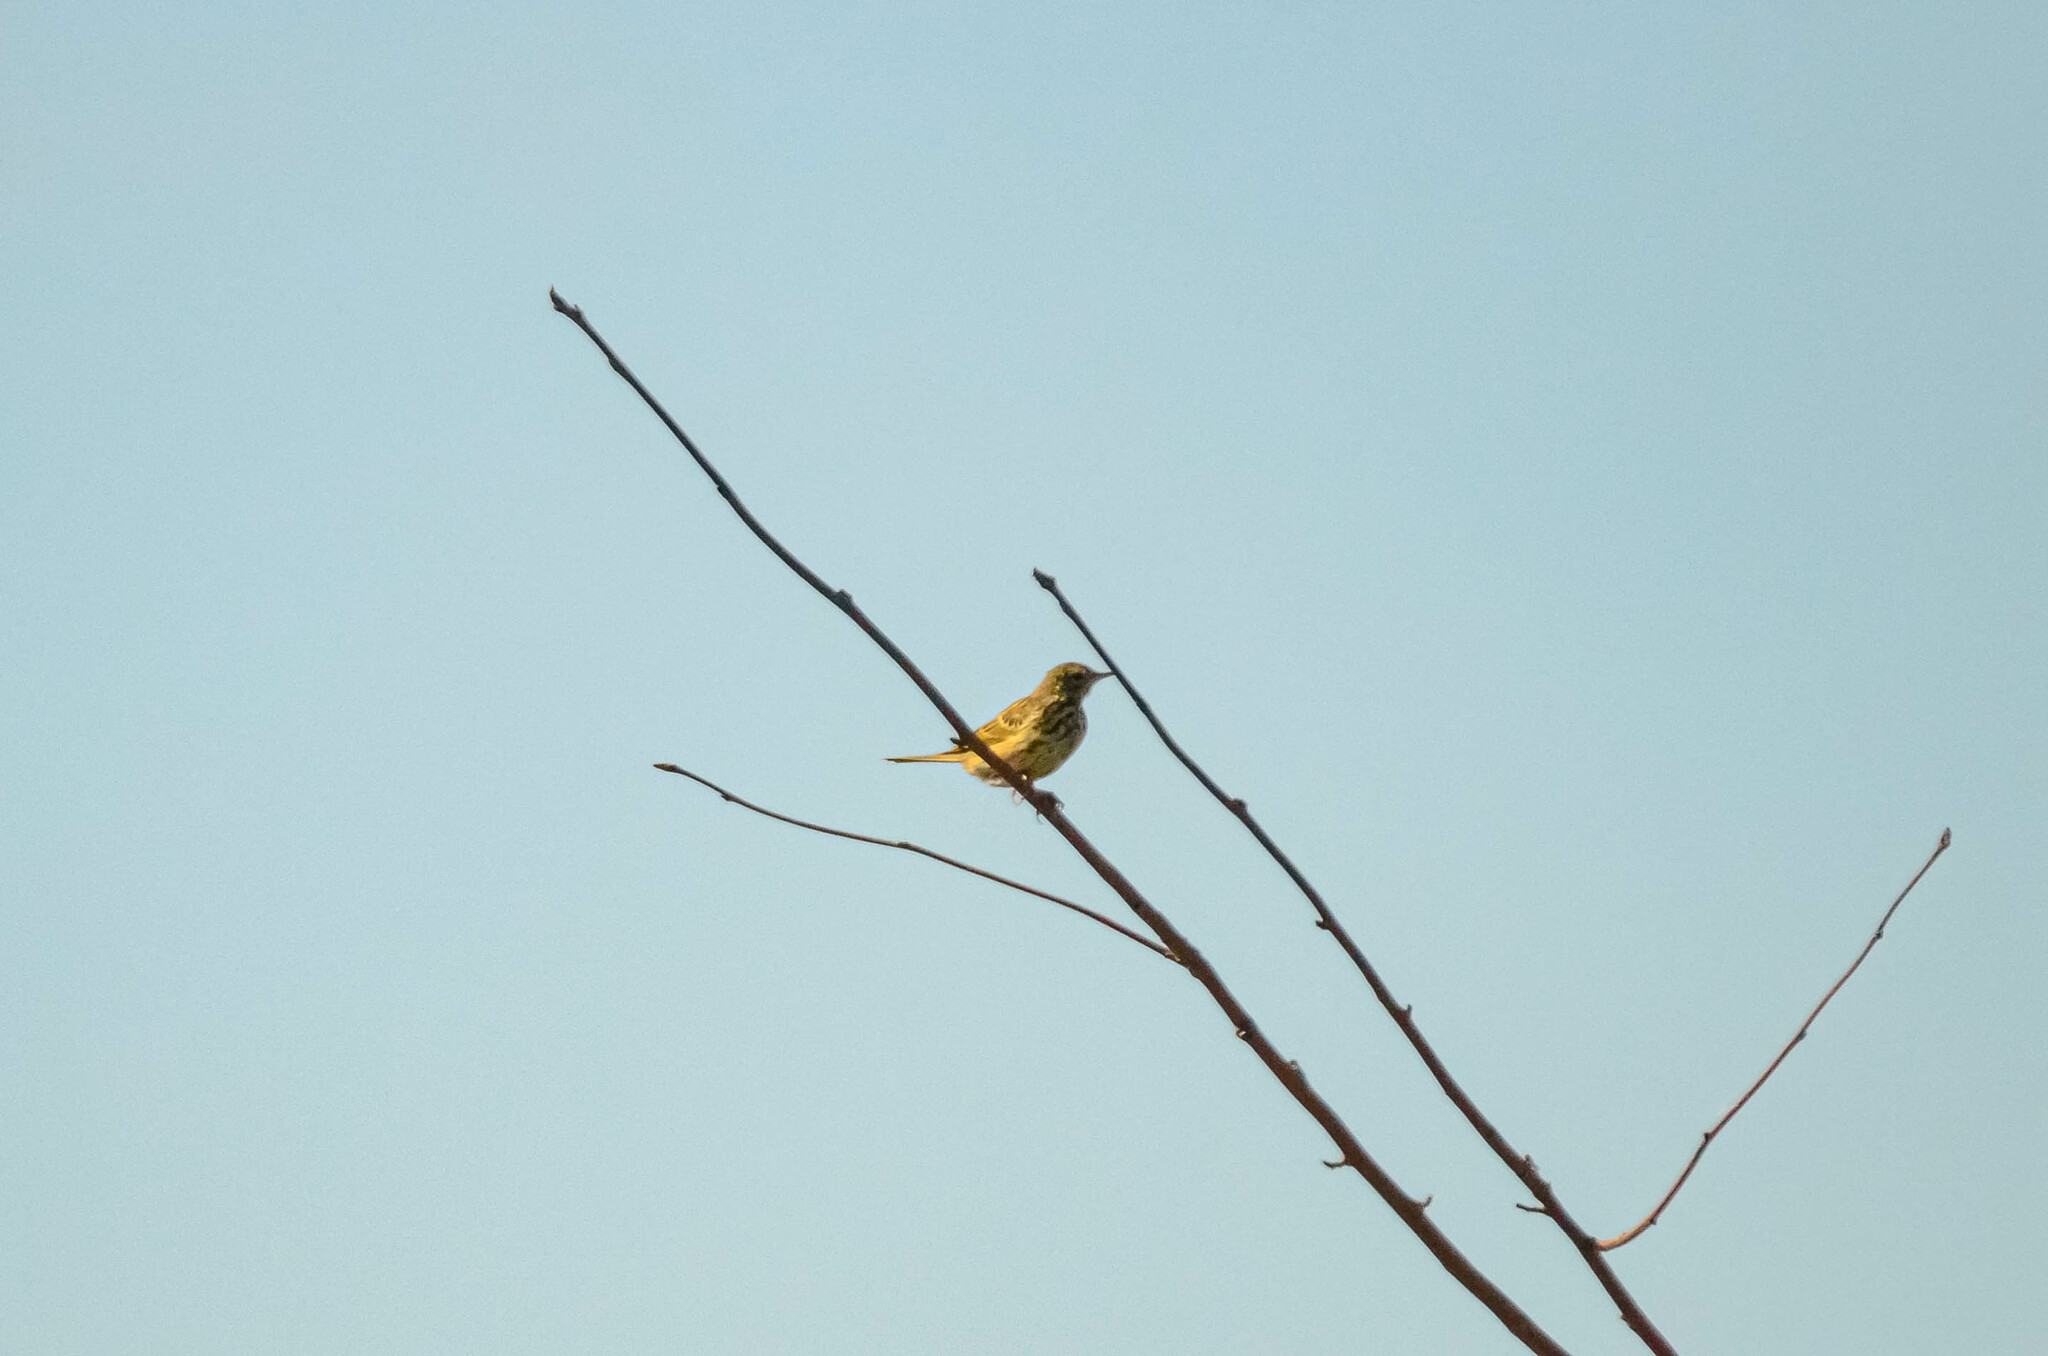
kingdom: Animalia
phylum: Chordata
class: Aves
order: Passeriformes
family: Motacillidae
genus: Anthus
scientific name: Anthus trivialis
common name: Tree pipit
